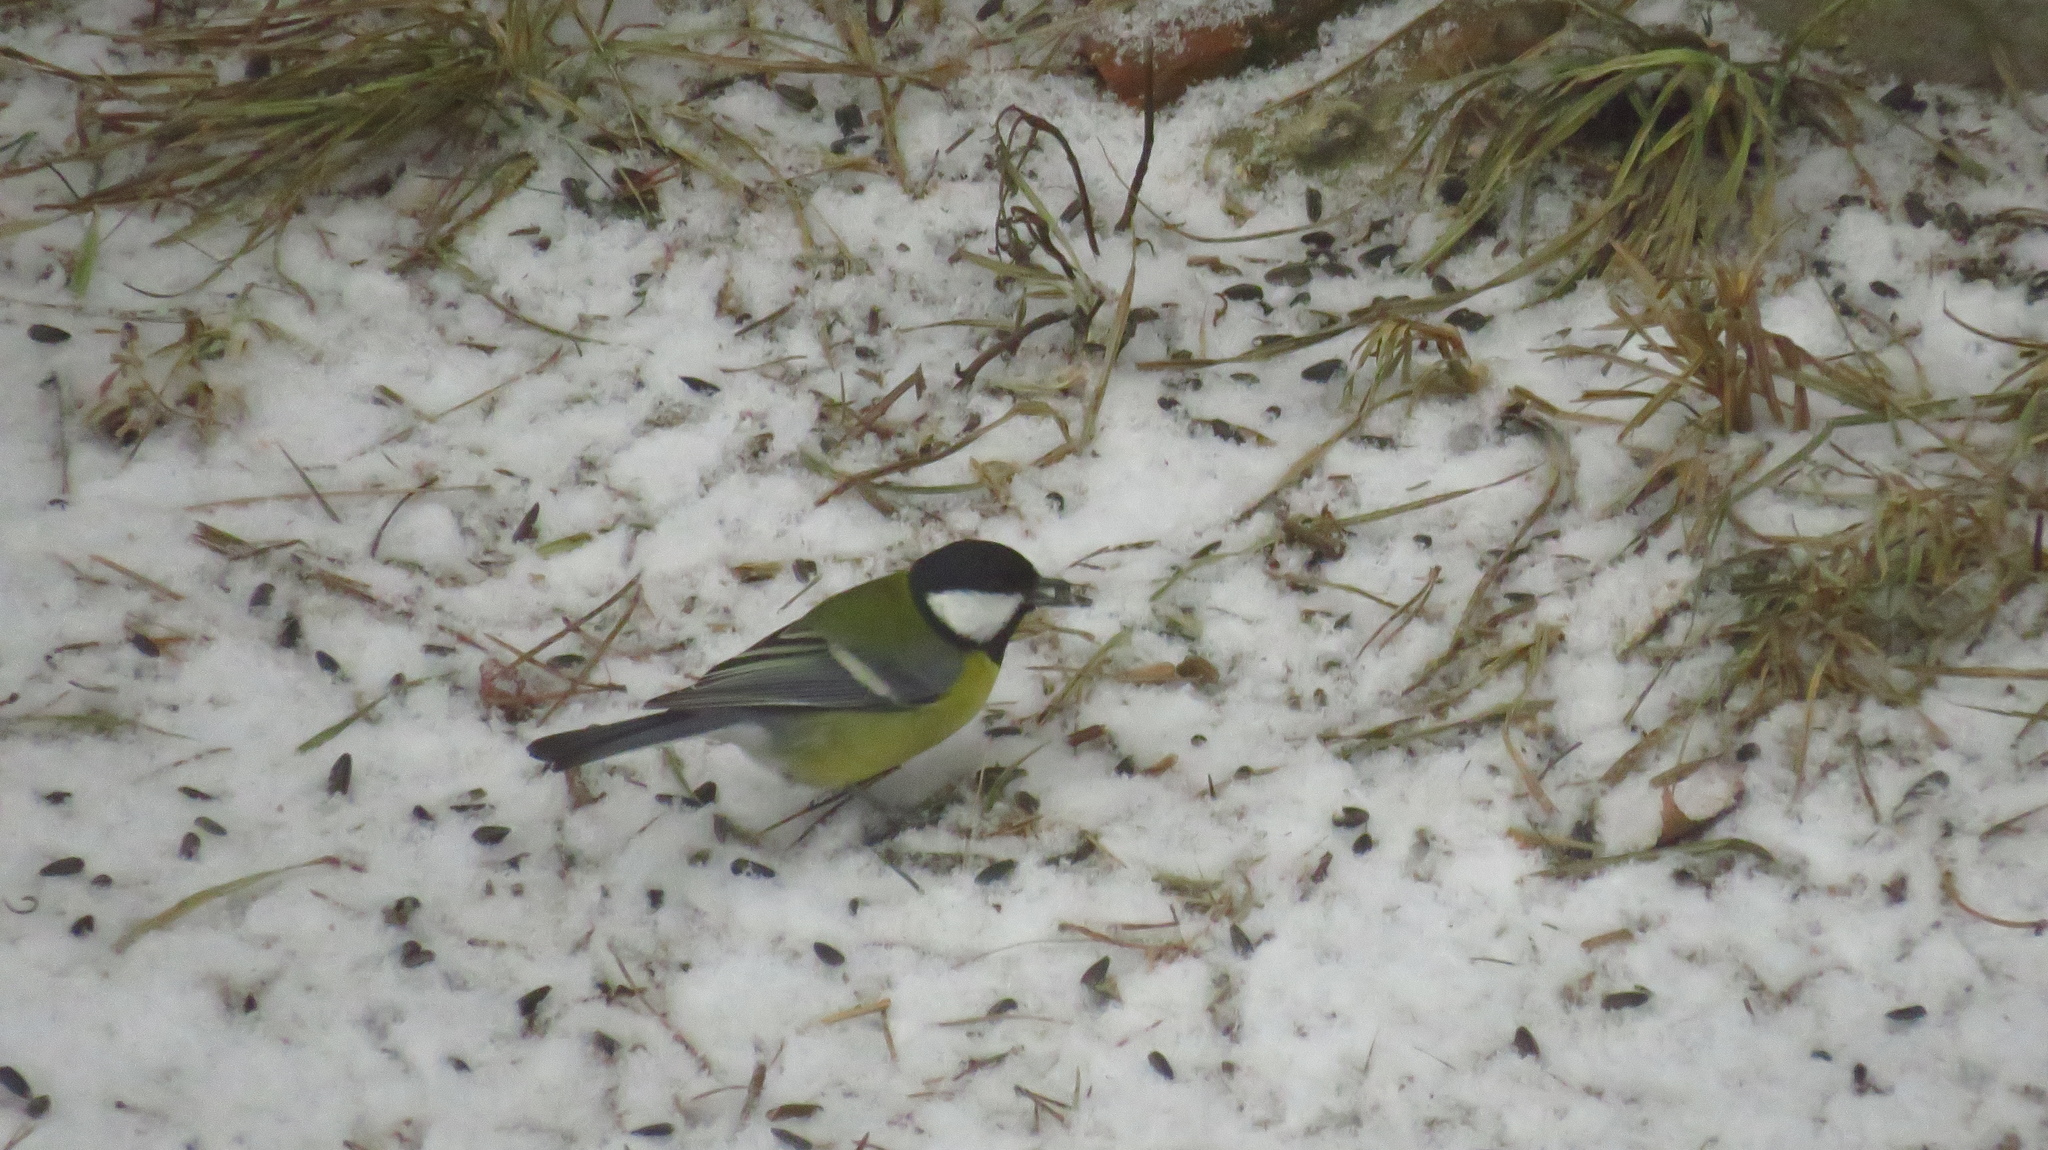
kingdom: Animalia
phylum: Chordata
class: Aves
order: Passeriformes
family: Paridae
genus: Parus
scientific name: Parus major
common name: Great tit
